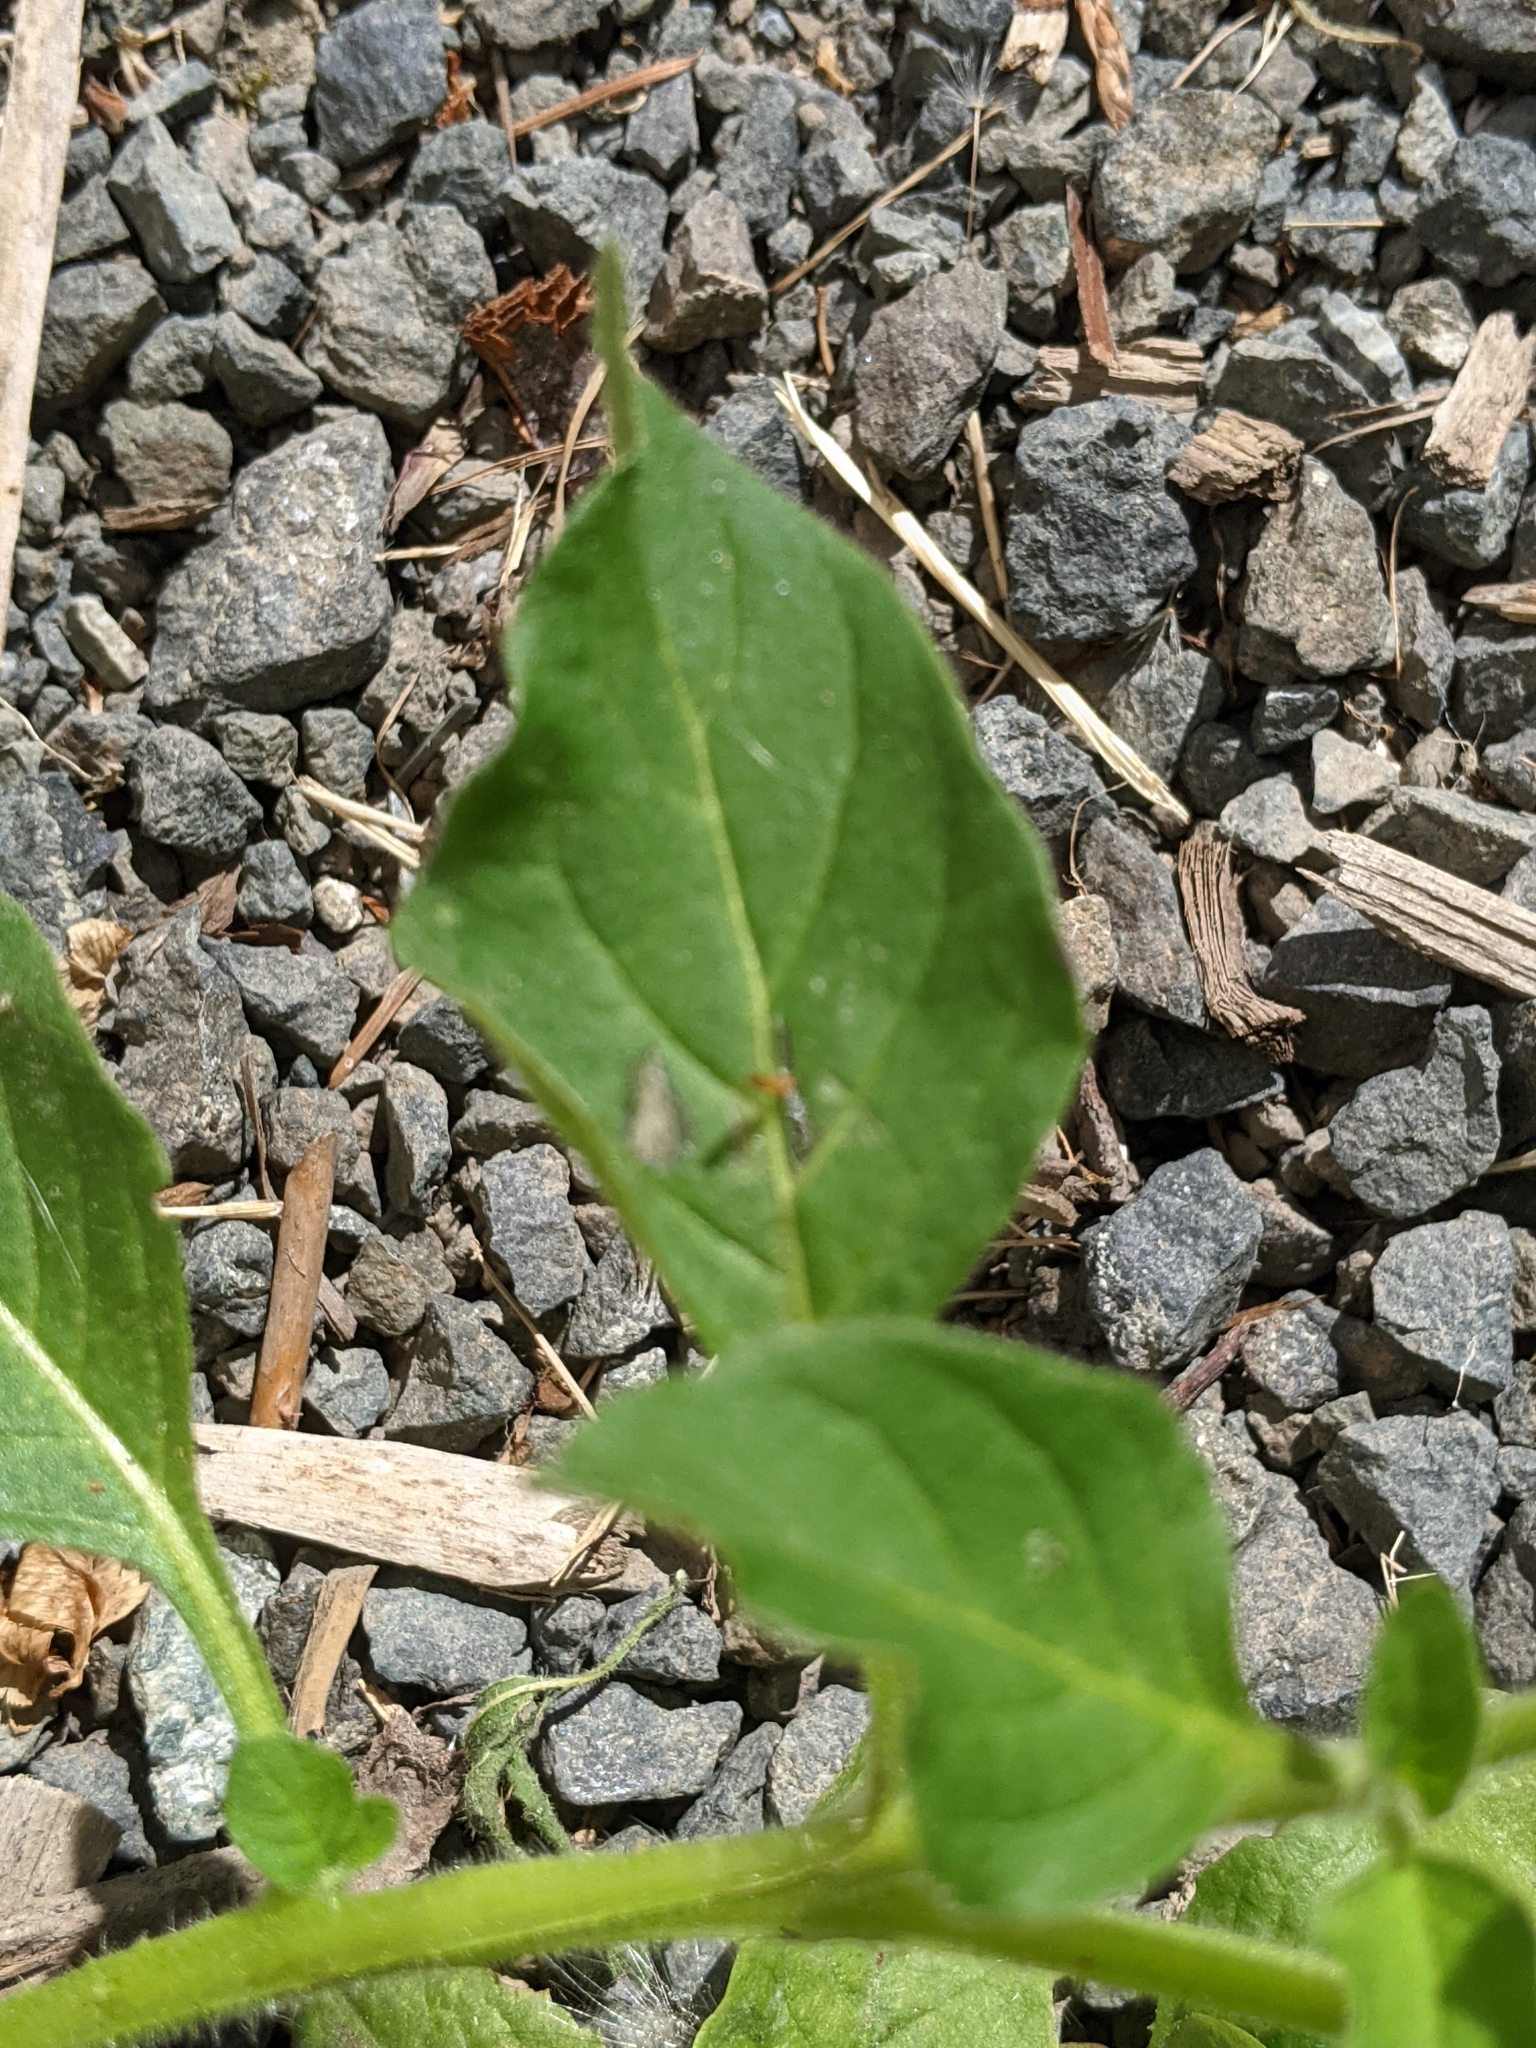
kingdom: Plantae
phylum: Tracheophyta
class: Magnoliopsida
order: Solanales
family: Solanaceae
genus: Solanum
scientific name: Solanum nitidibaccatum
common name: Hairy nightshade
